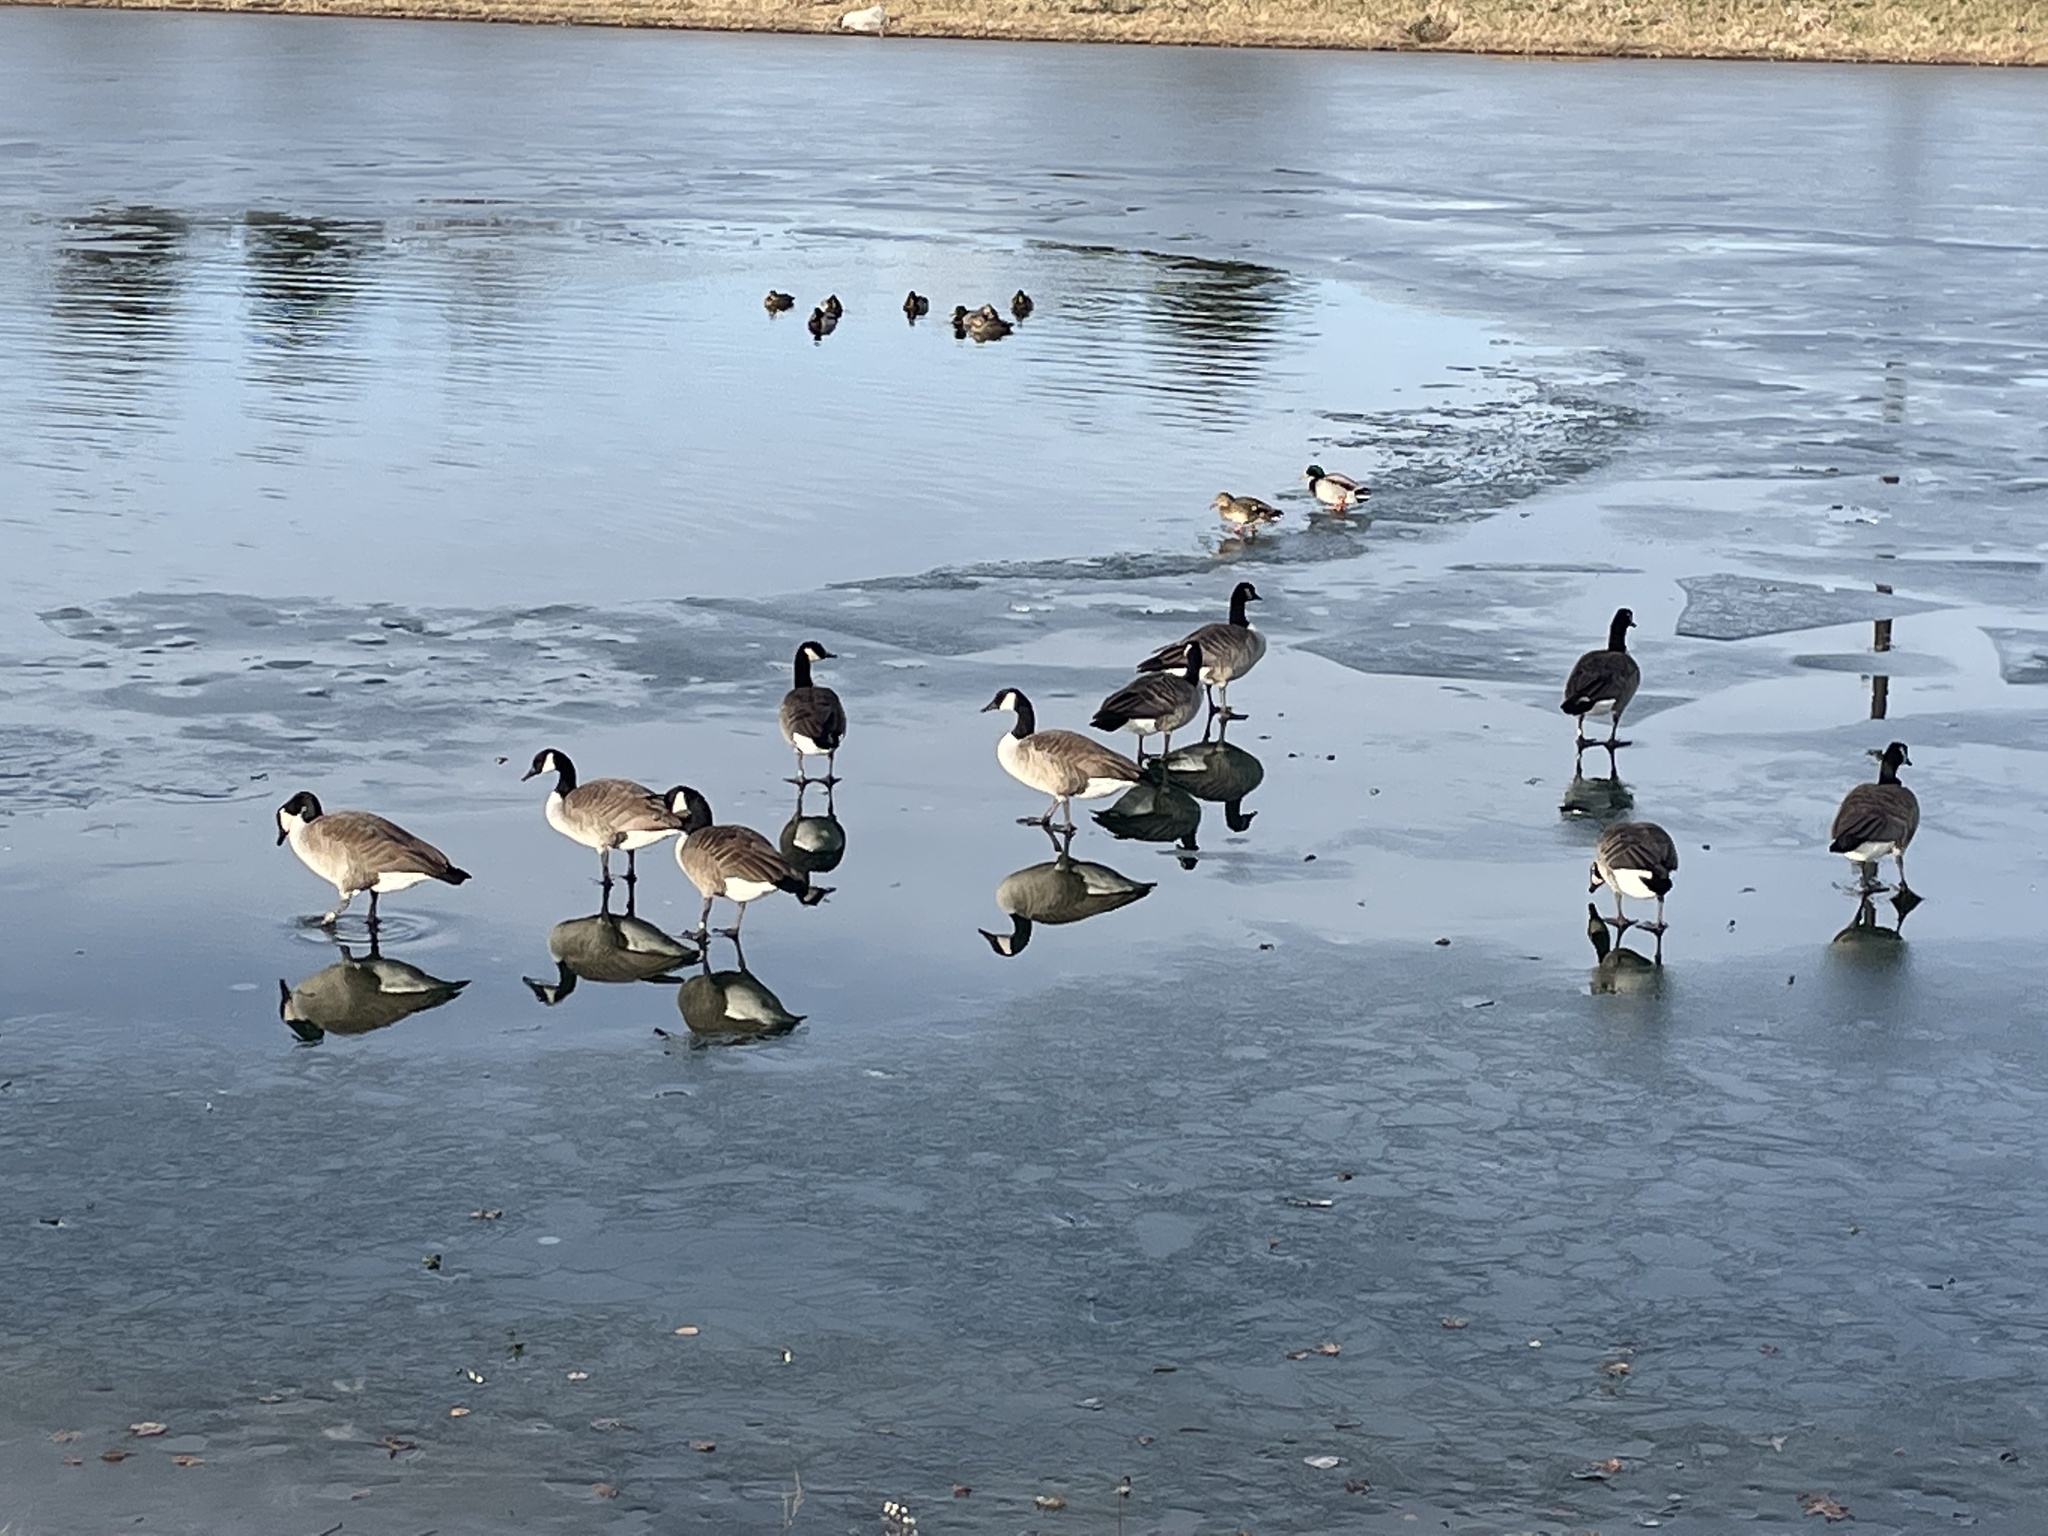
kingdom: Animalia
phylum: Chordata
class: Aves
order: Anseriformes
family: Anatidae
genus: Branta
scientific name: Branta canadensis
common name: Canada goose
